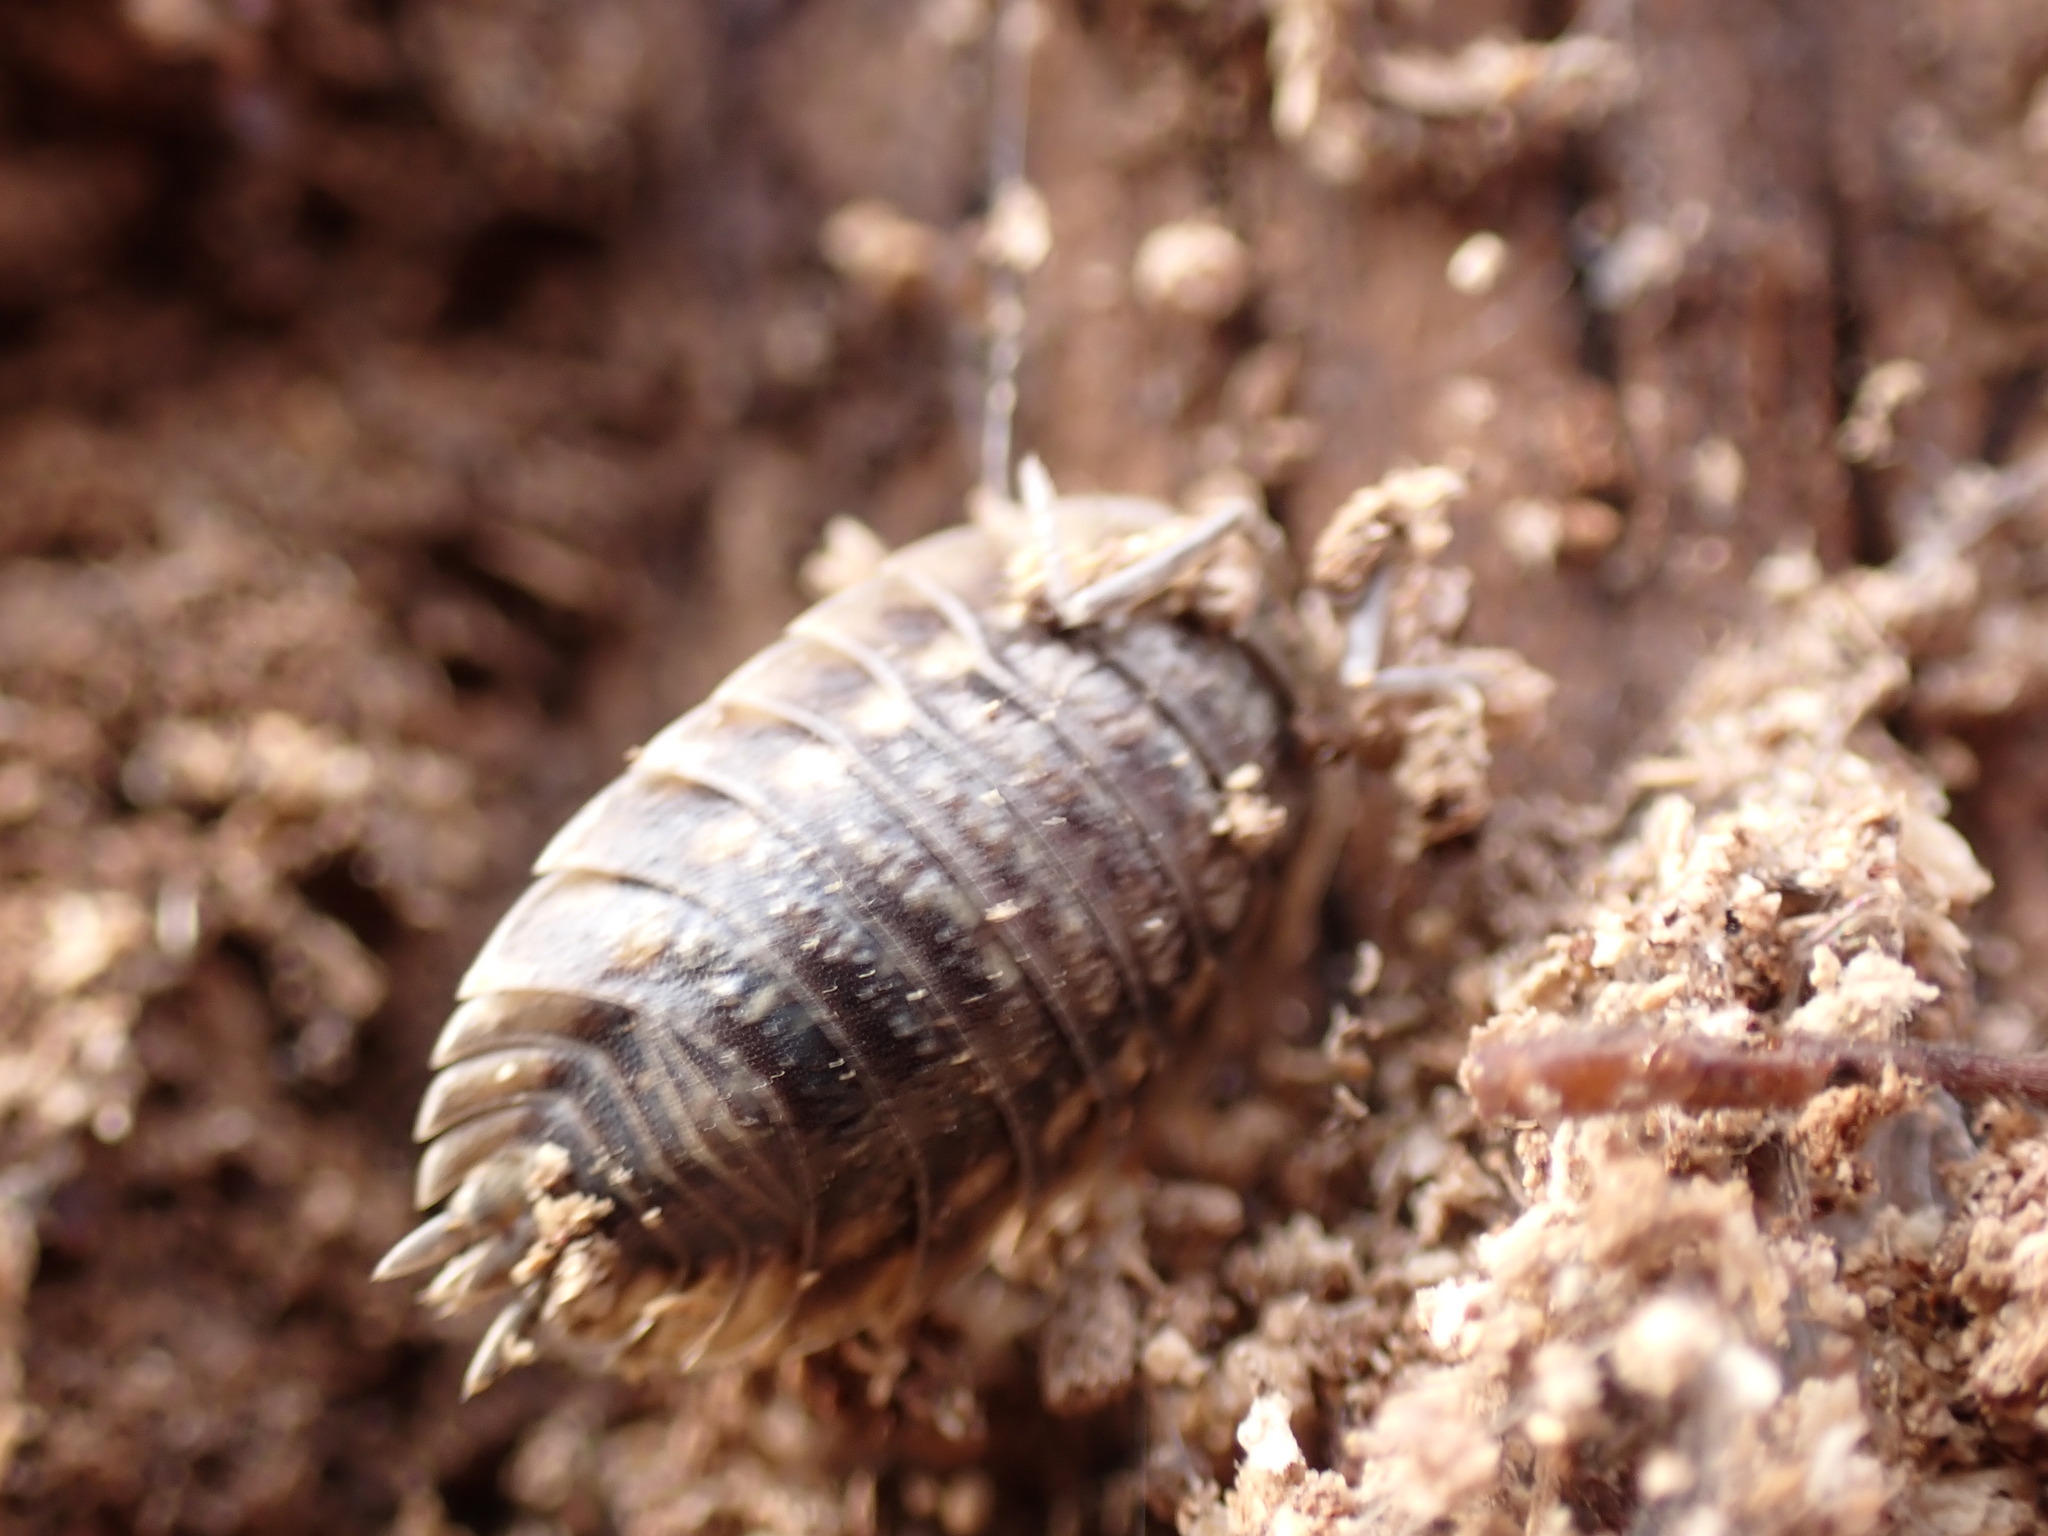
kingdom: Animalia
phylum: Arthropoda
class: Malacostraca
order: Isopoda
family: Oniscidae
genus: Oniscus
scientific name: Oniscus asellus
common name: Common shiny woodlouse
